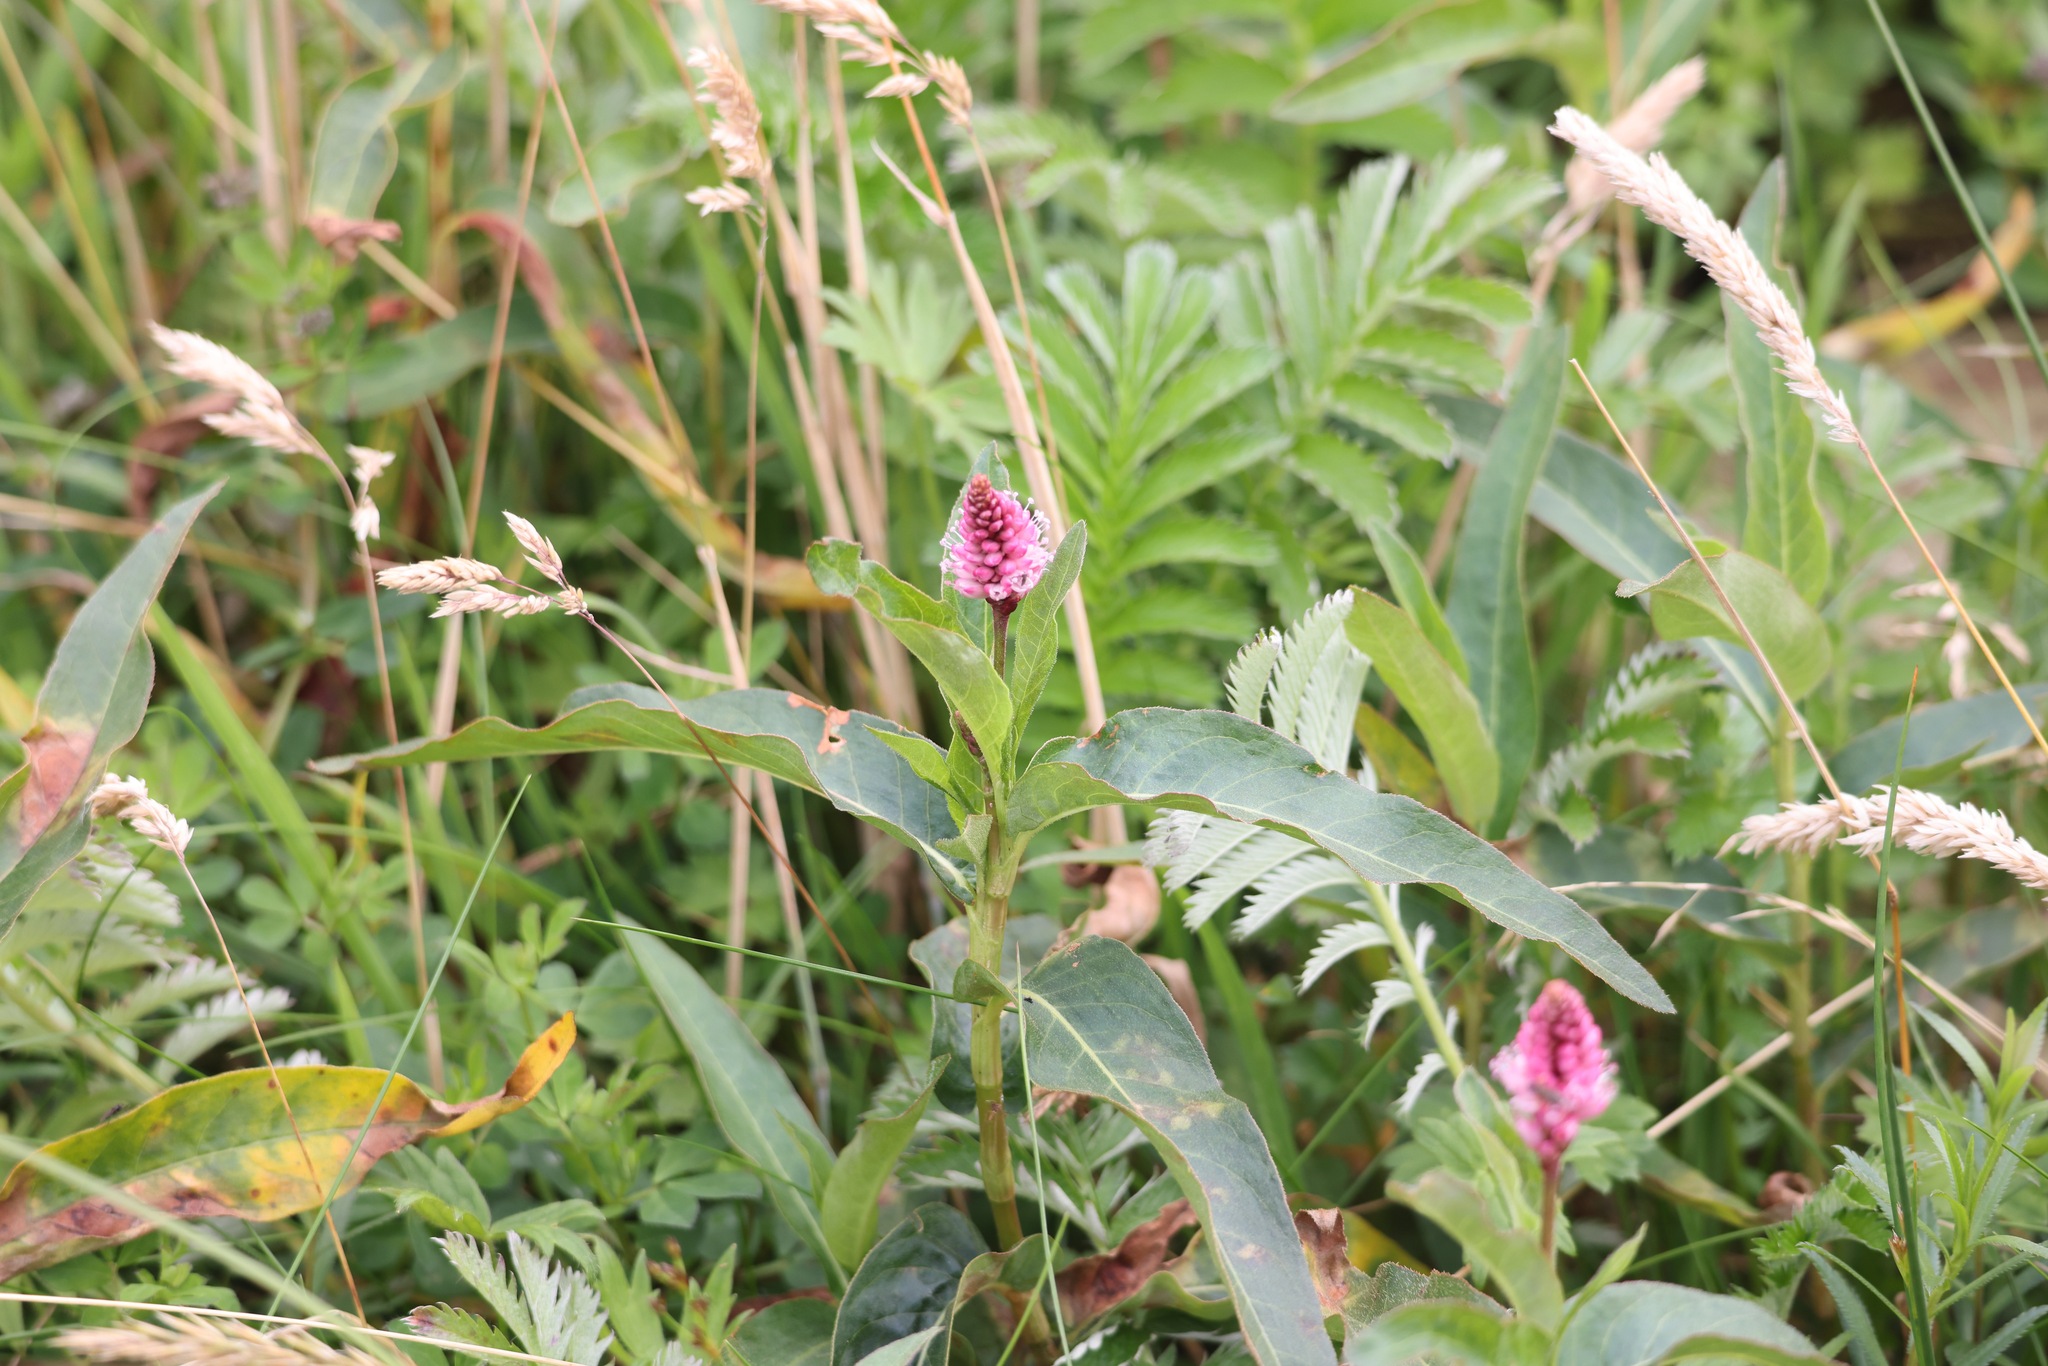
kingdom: Plantae
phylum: Tracheophyta
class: Magnoliopsida
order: Caryophyllales
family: Polygonaceae
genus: Persicaria
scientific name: Persicaria amphibia
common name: Amphibious bistort
